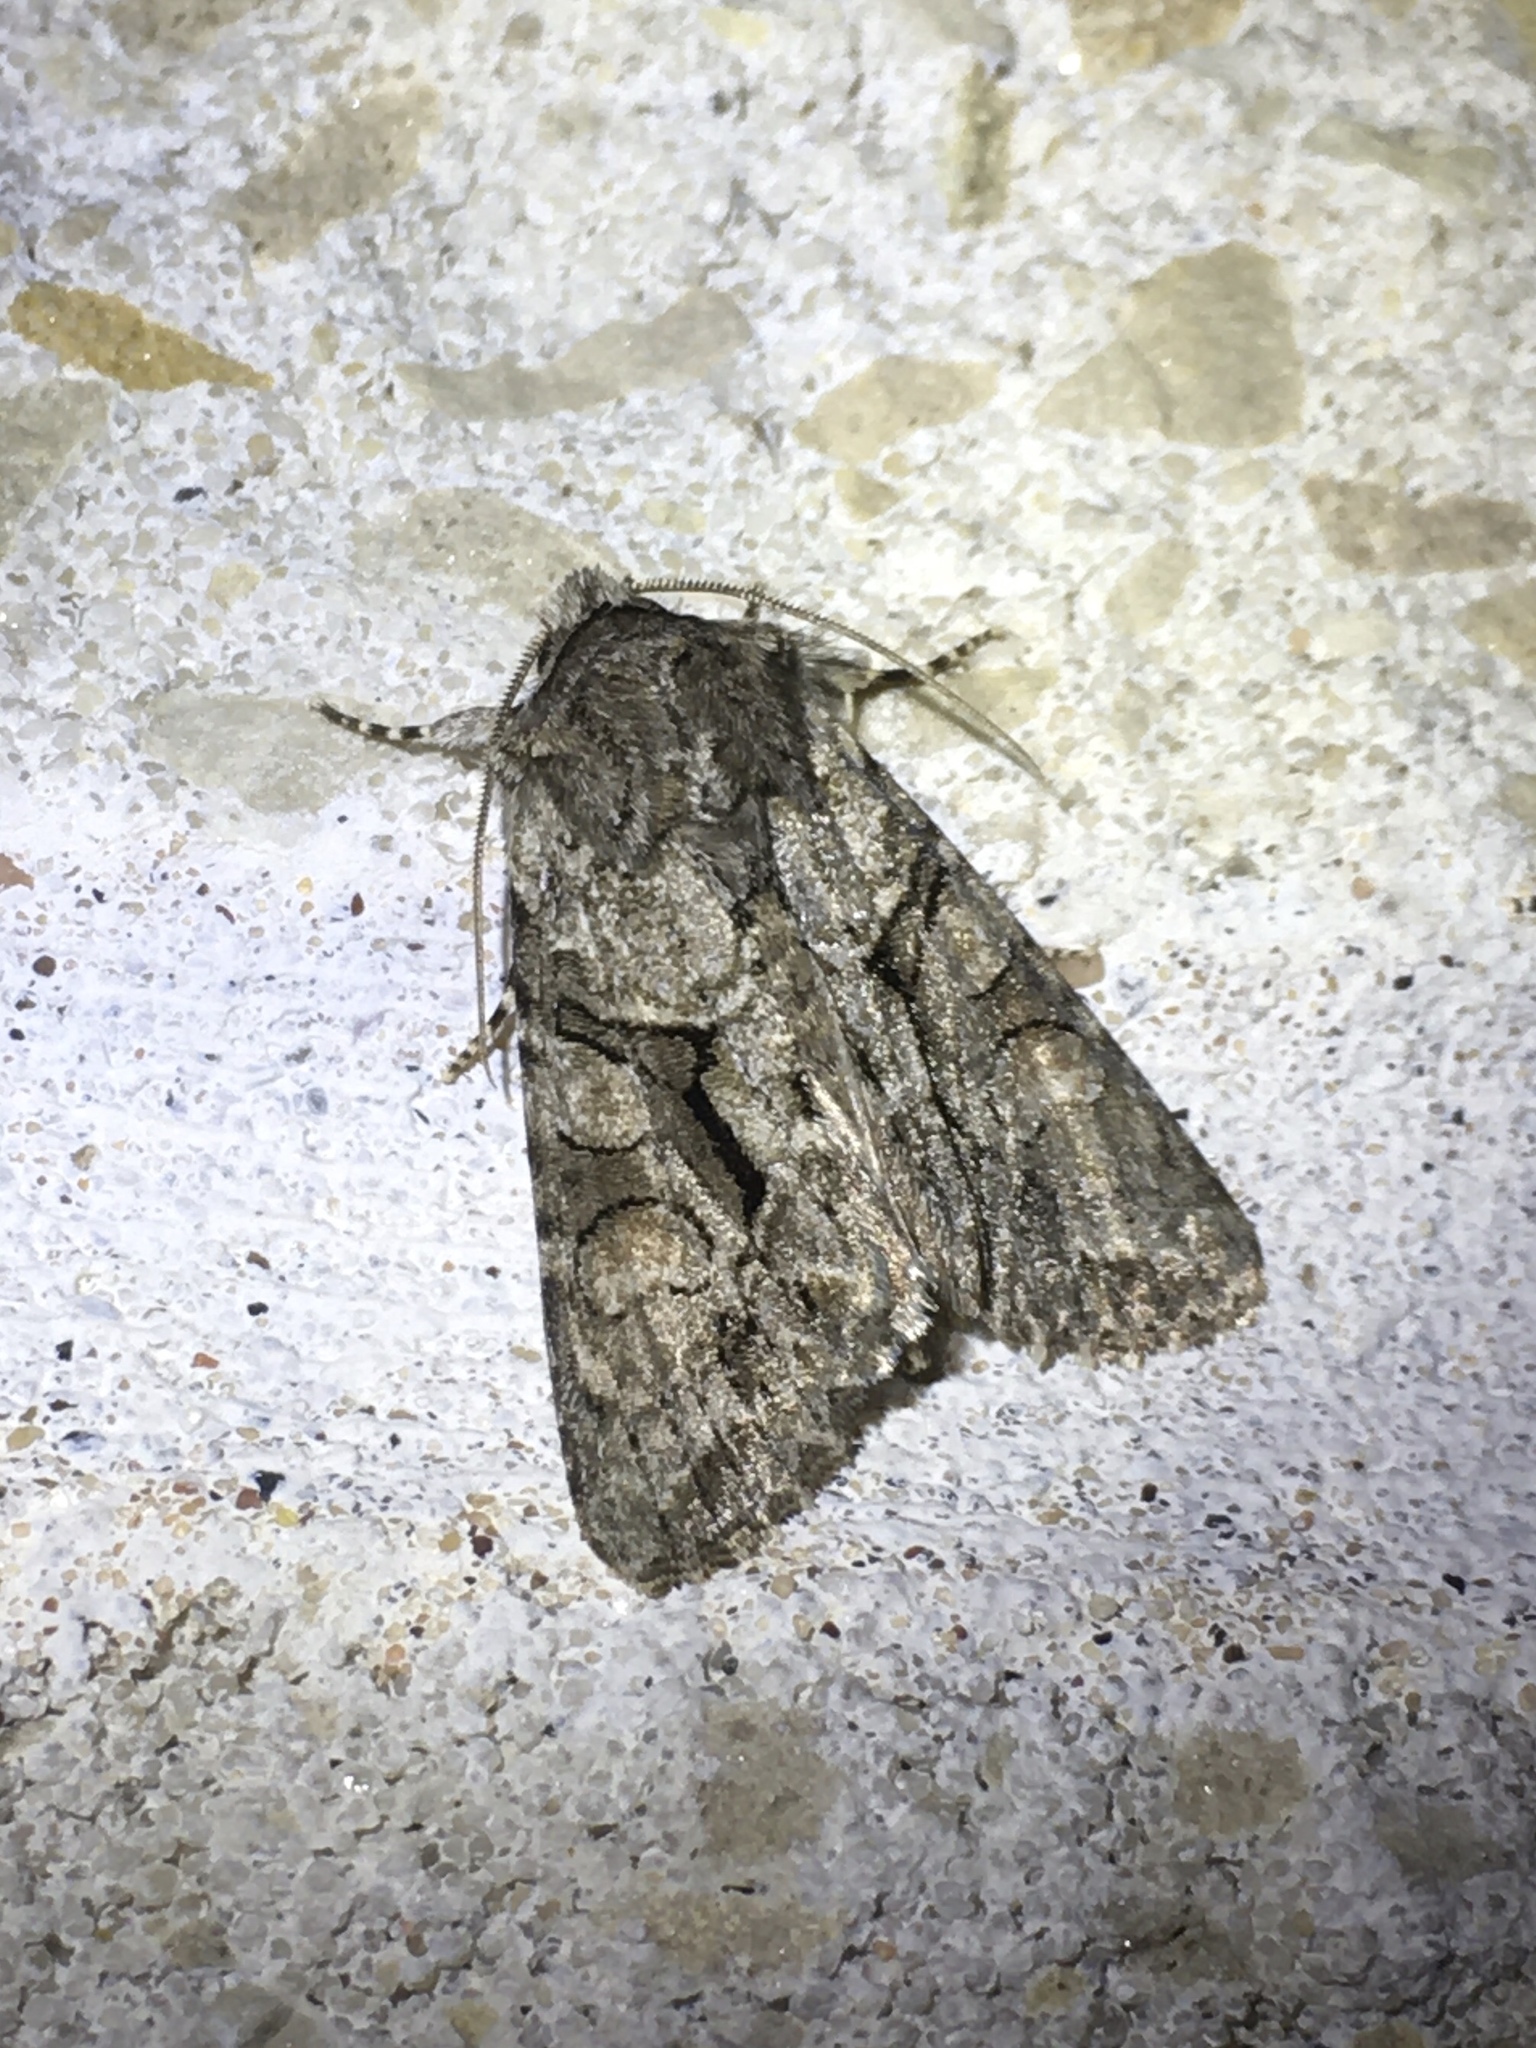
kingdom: Animalia
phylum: Arthropoda
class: Insecta
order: Lepidoptera
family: Noctuidae
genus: Achatia
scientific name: Achatia distincta
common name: Distinct quaker
